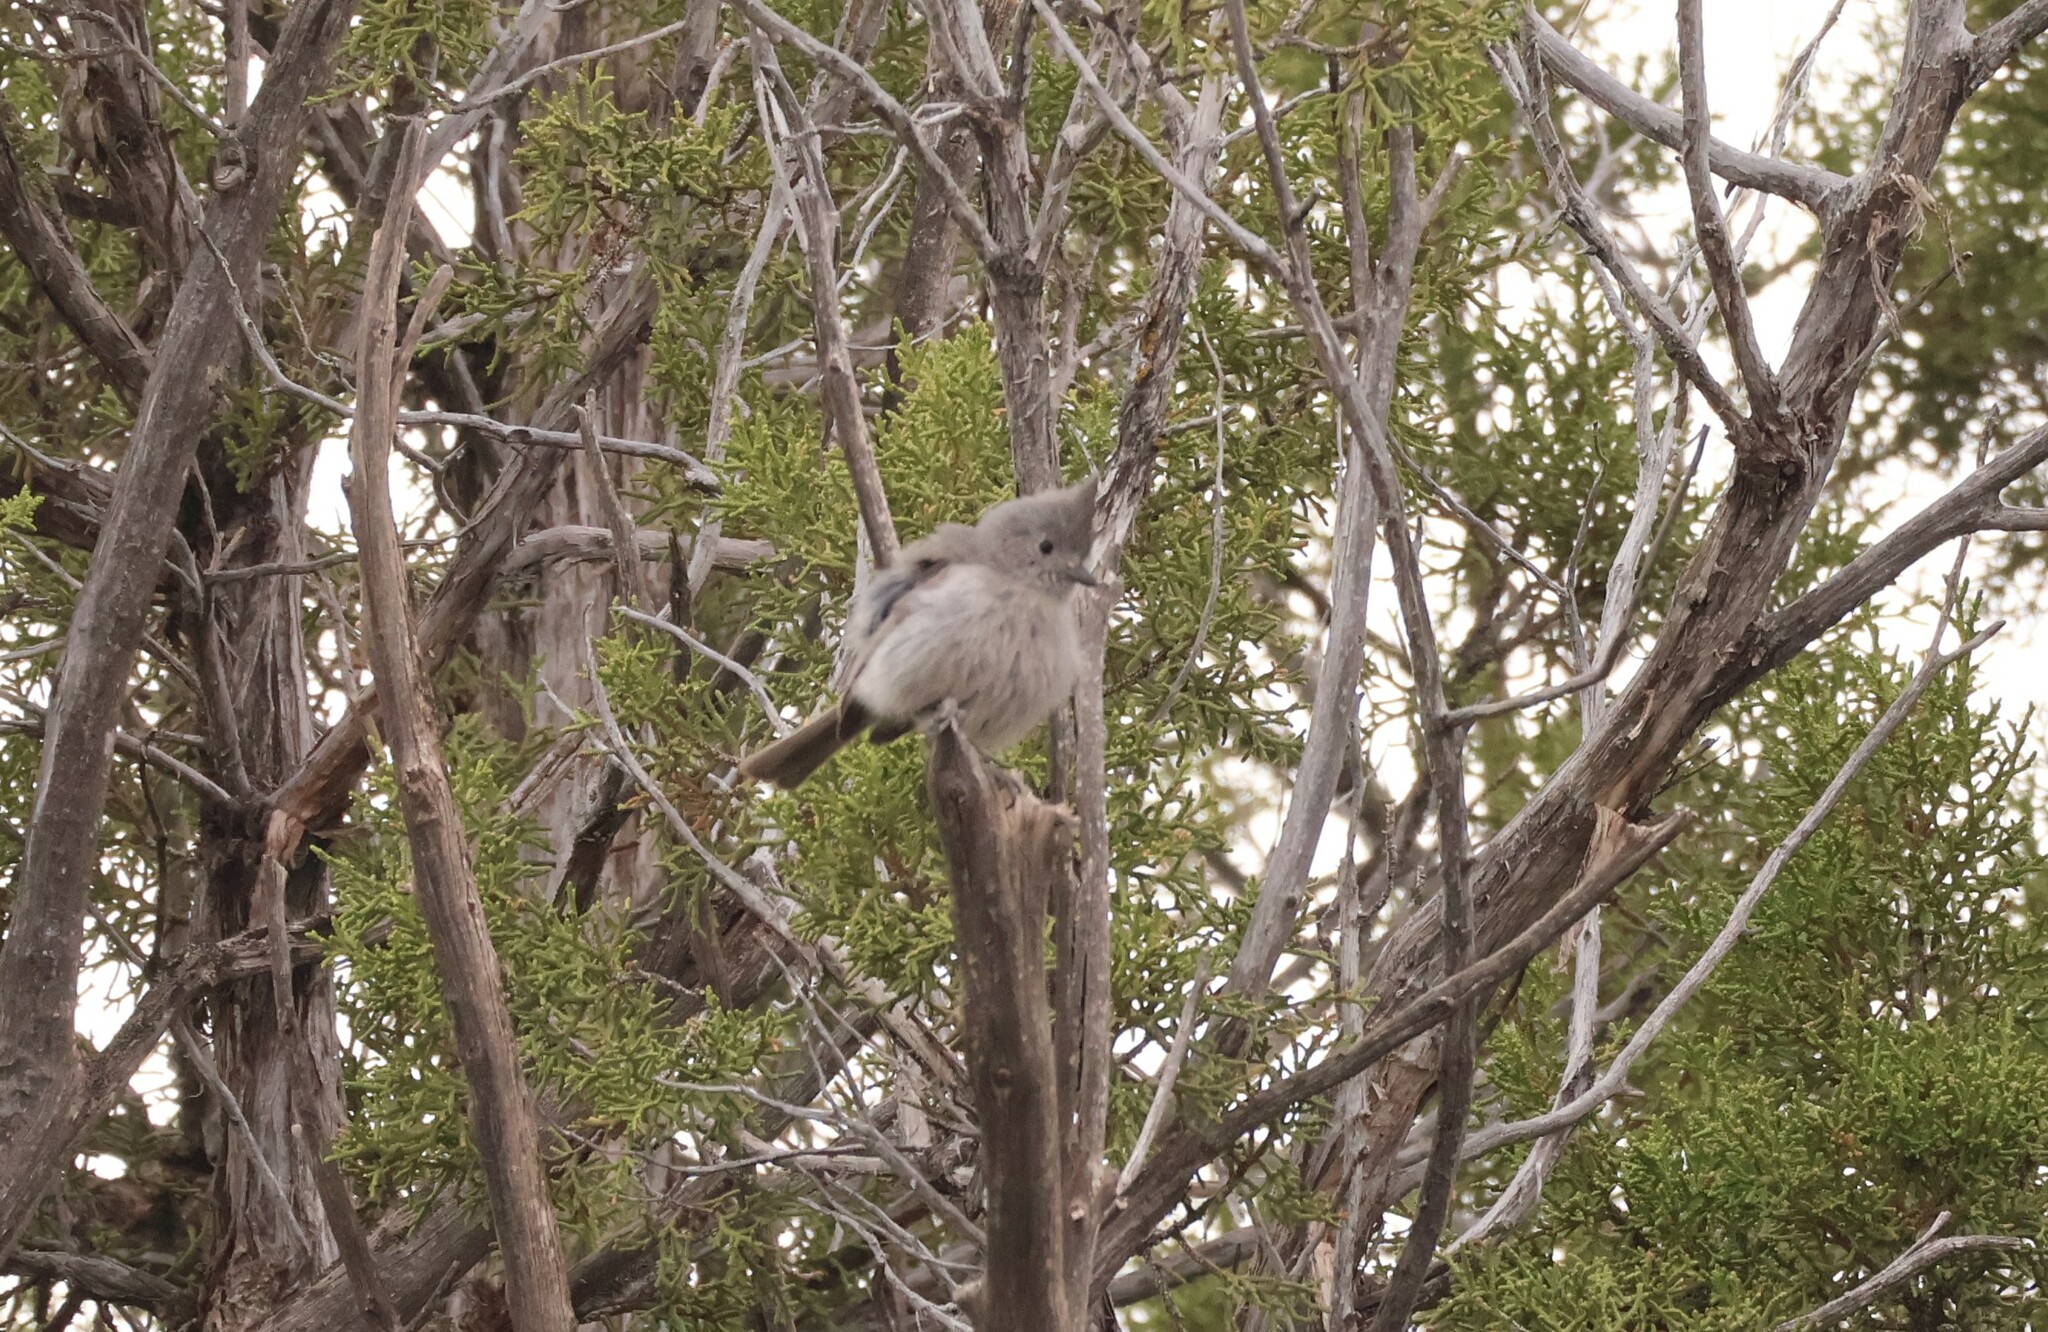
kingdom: Animalia
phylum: Chordata
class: Aves
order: Passeriformes
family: Paridae
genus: Baeolophus
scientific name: Baeolophus ridgwayi
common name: Juniper titmouse
